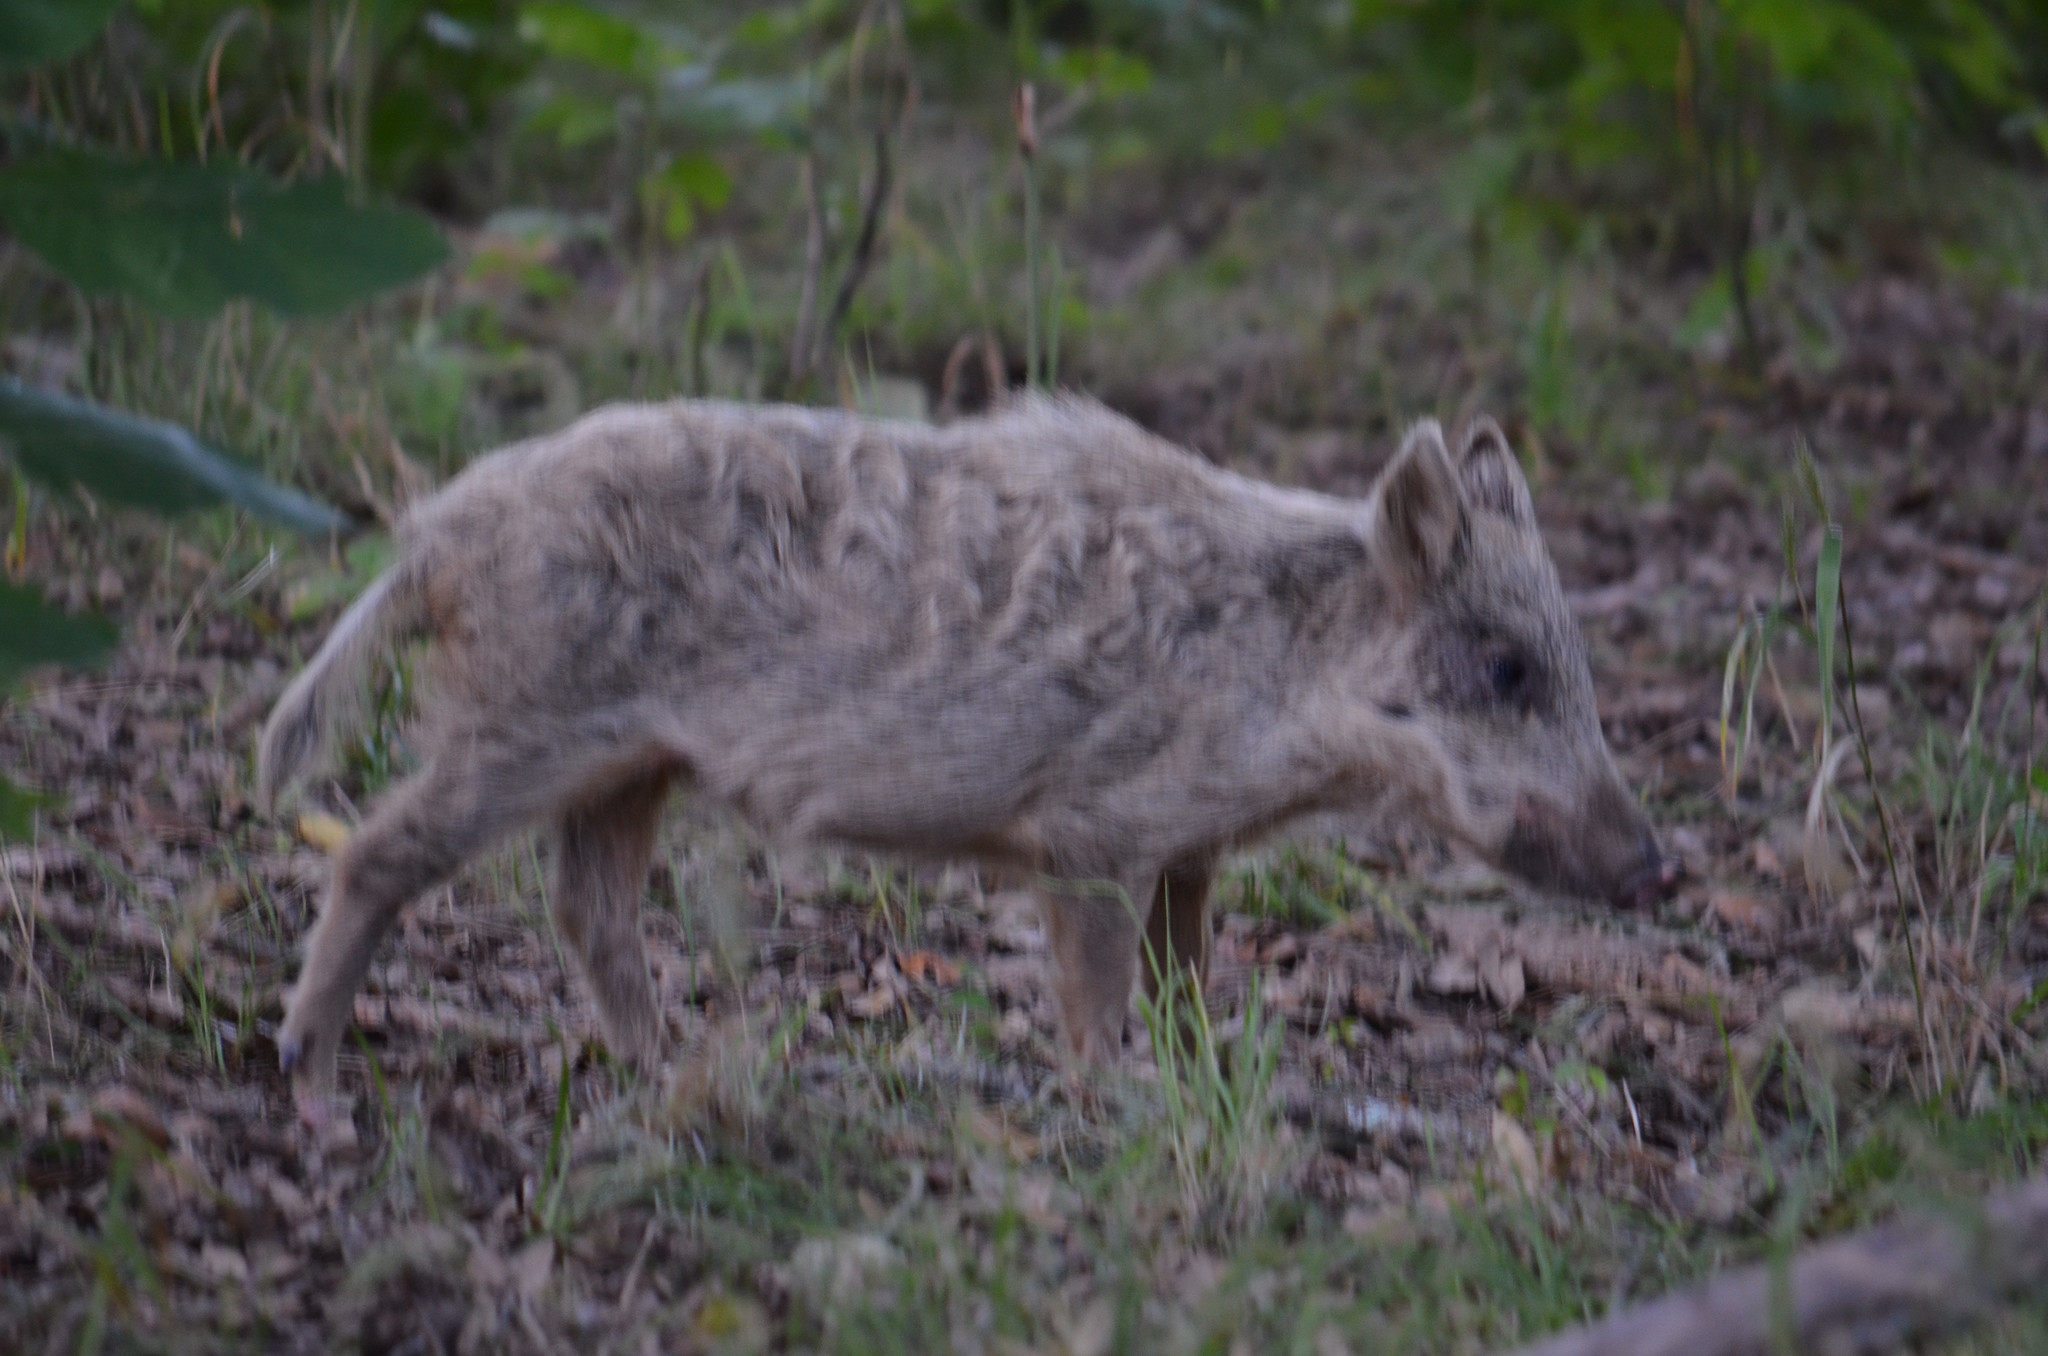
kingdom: Animalia
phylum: Chordata
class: Mammalia
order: Artiodactyla
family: Suidae
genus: Sus
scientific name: Sus scrofa
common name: Wild boar
